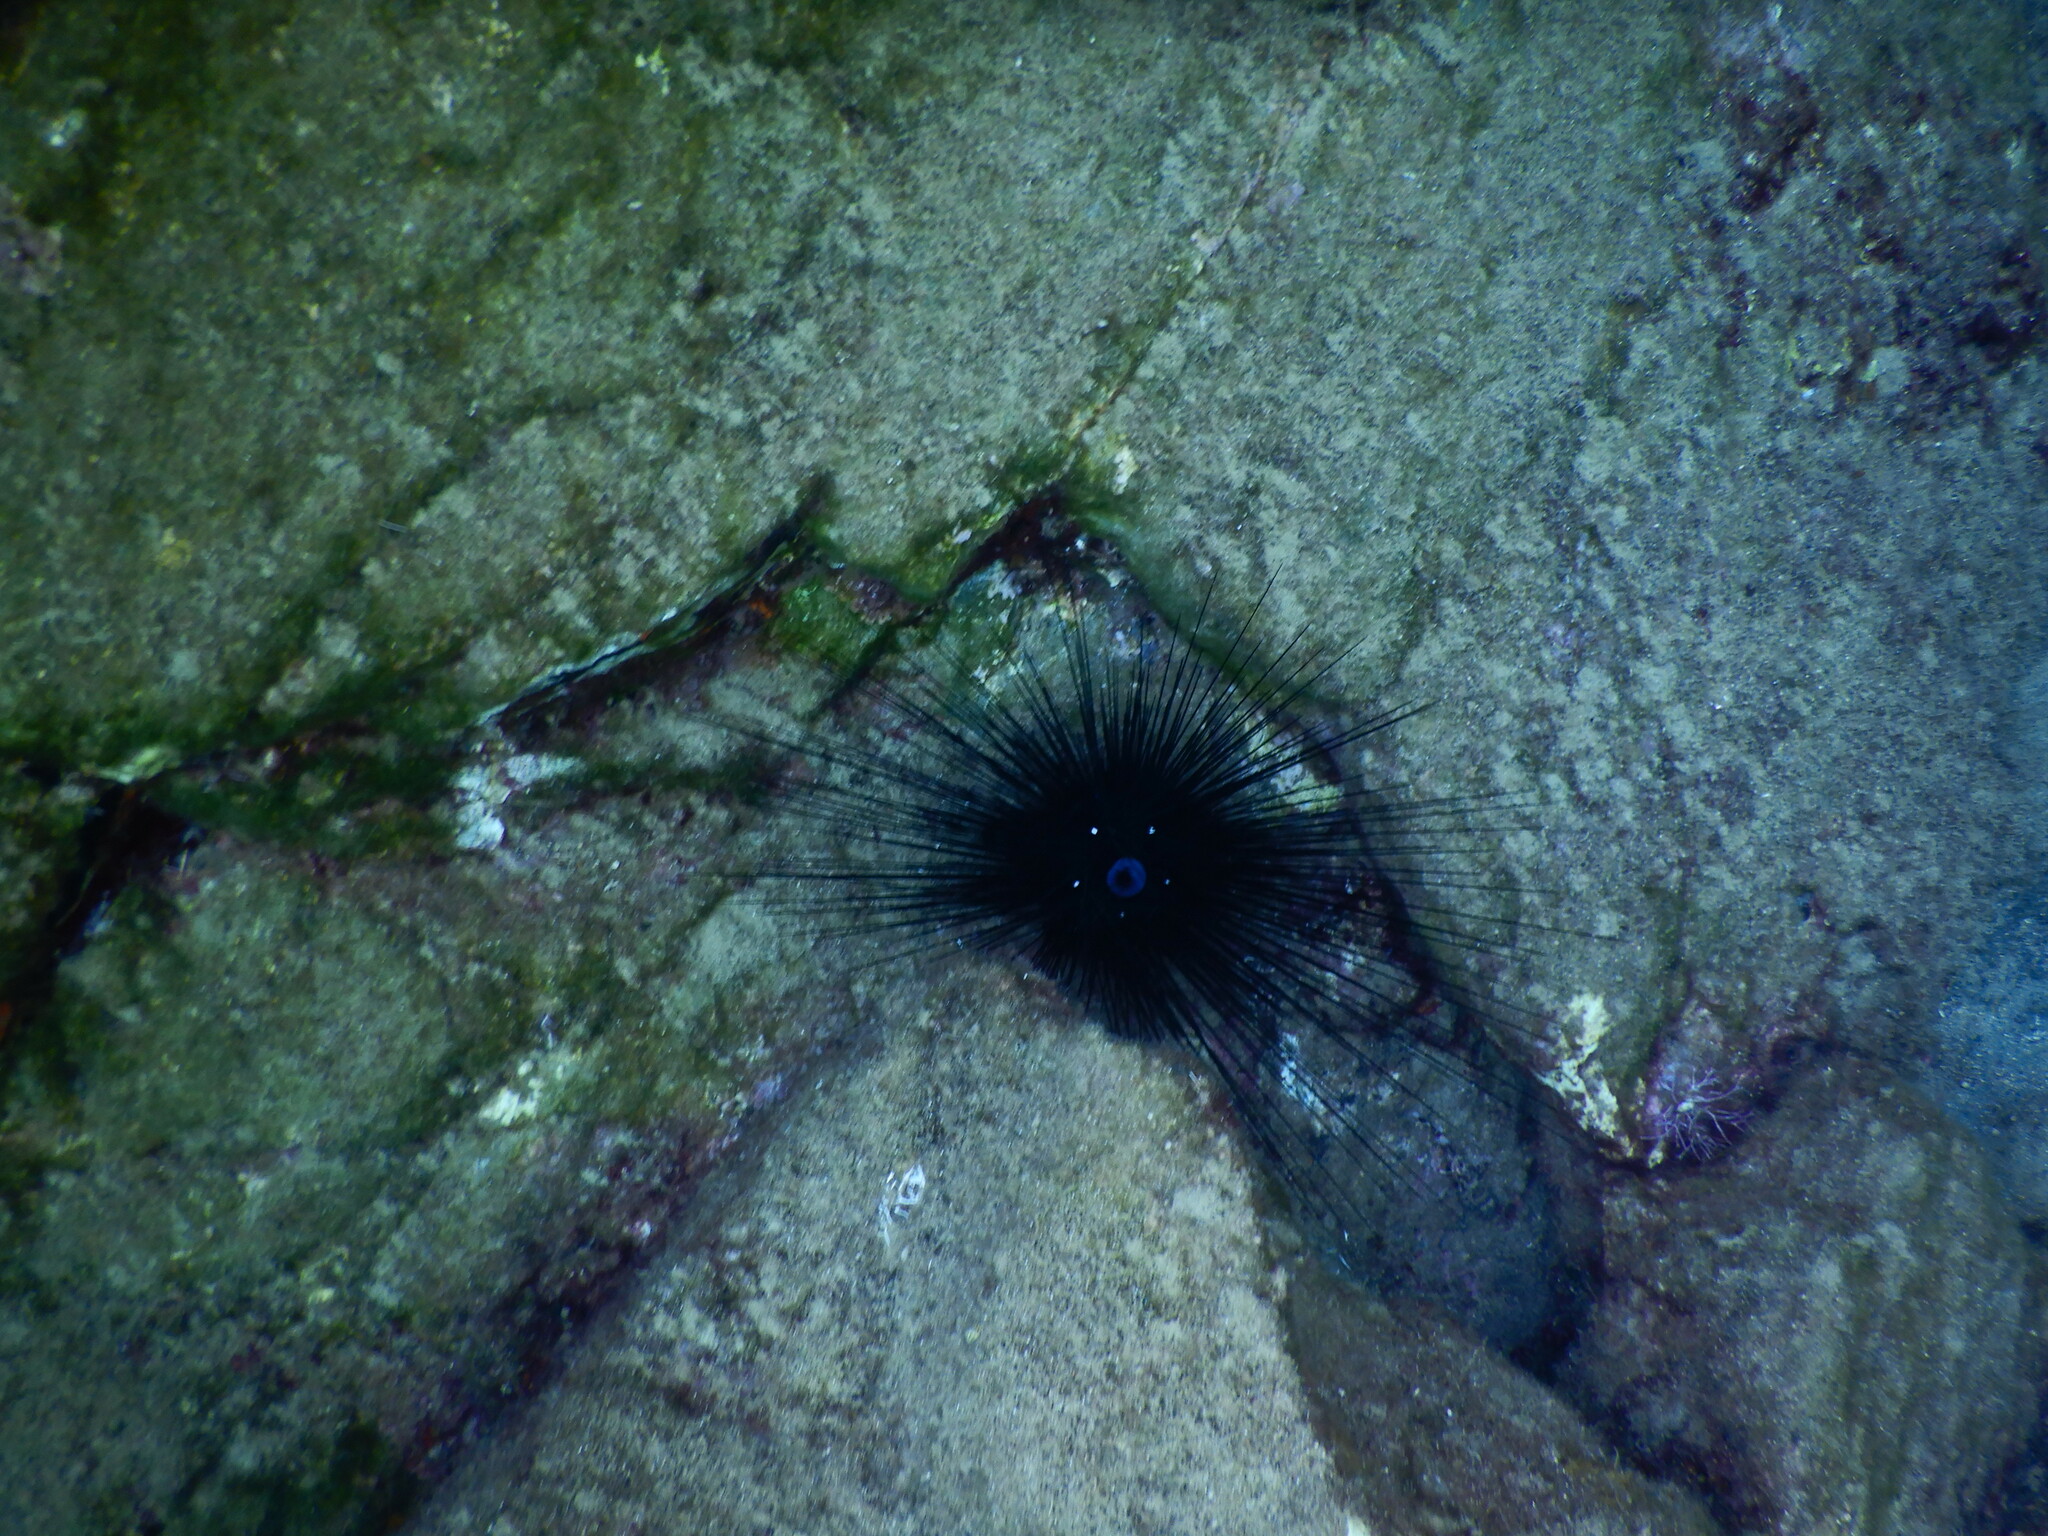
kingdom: Animalia
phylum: Echinodermata
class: Echinoidea
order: Diadematoida
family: Diadematidae
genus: Diadema
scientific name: Diadema setosum
